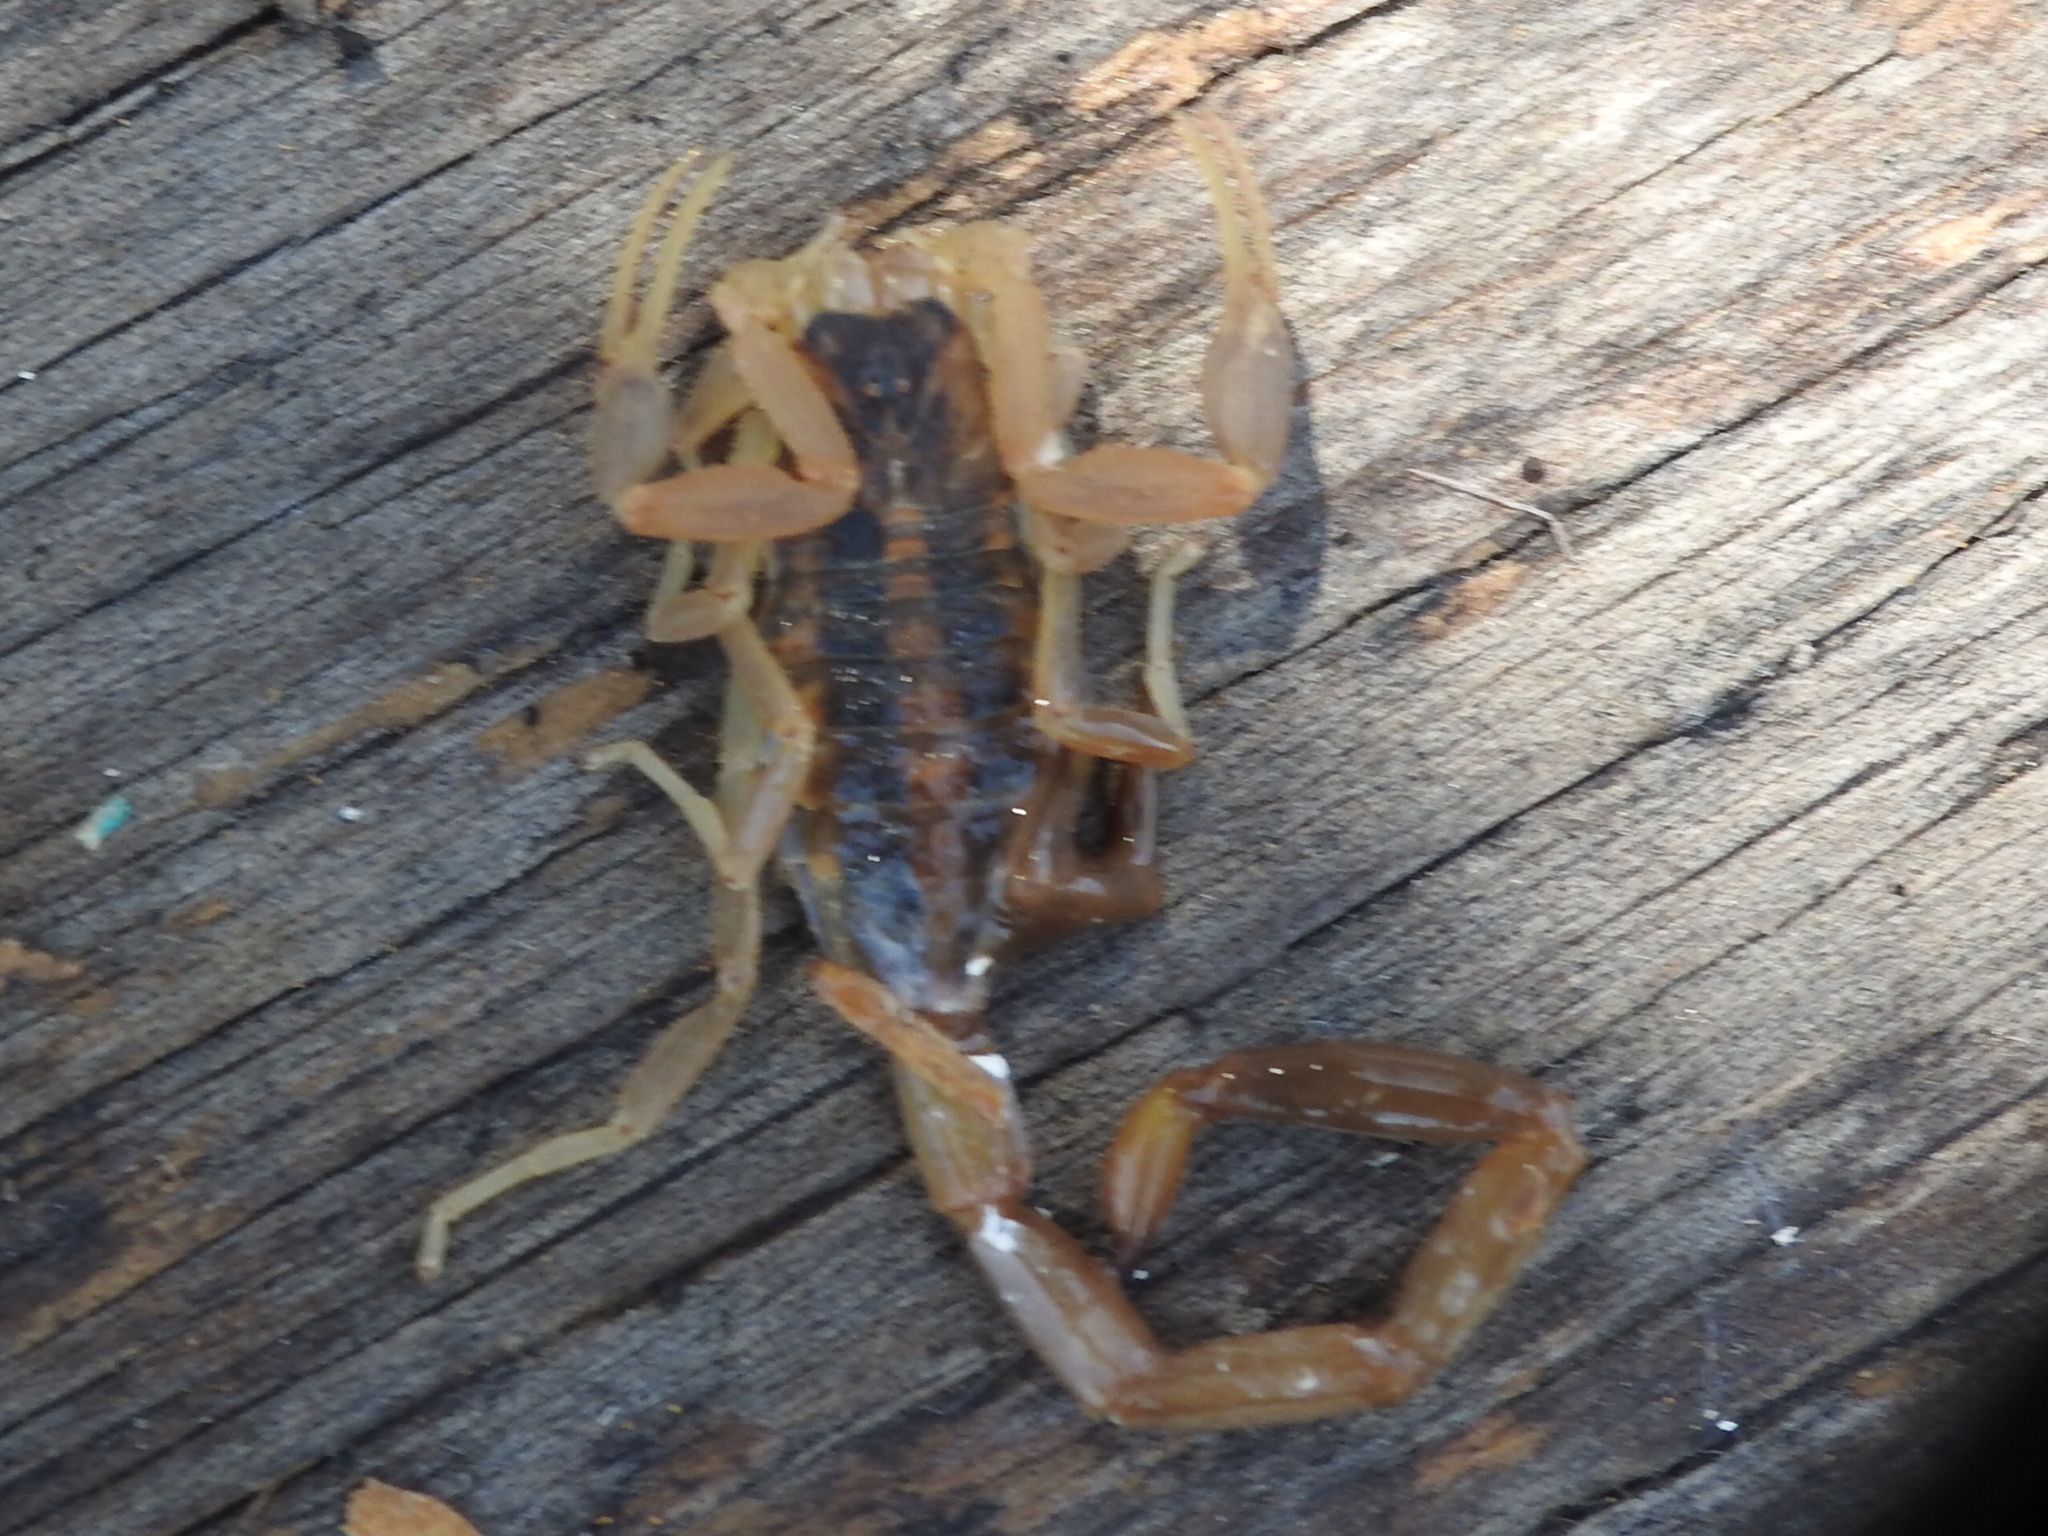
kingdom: Animalia
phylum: Arthropoda
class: Arachnida
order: Scorpiones
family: Buthidae
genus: Centruroides
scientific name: Centruroides vittatus
